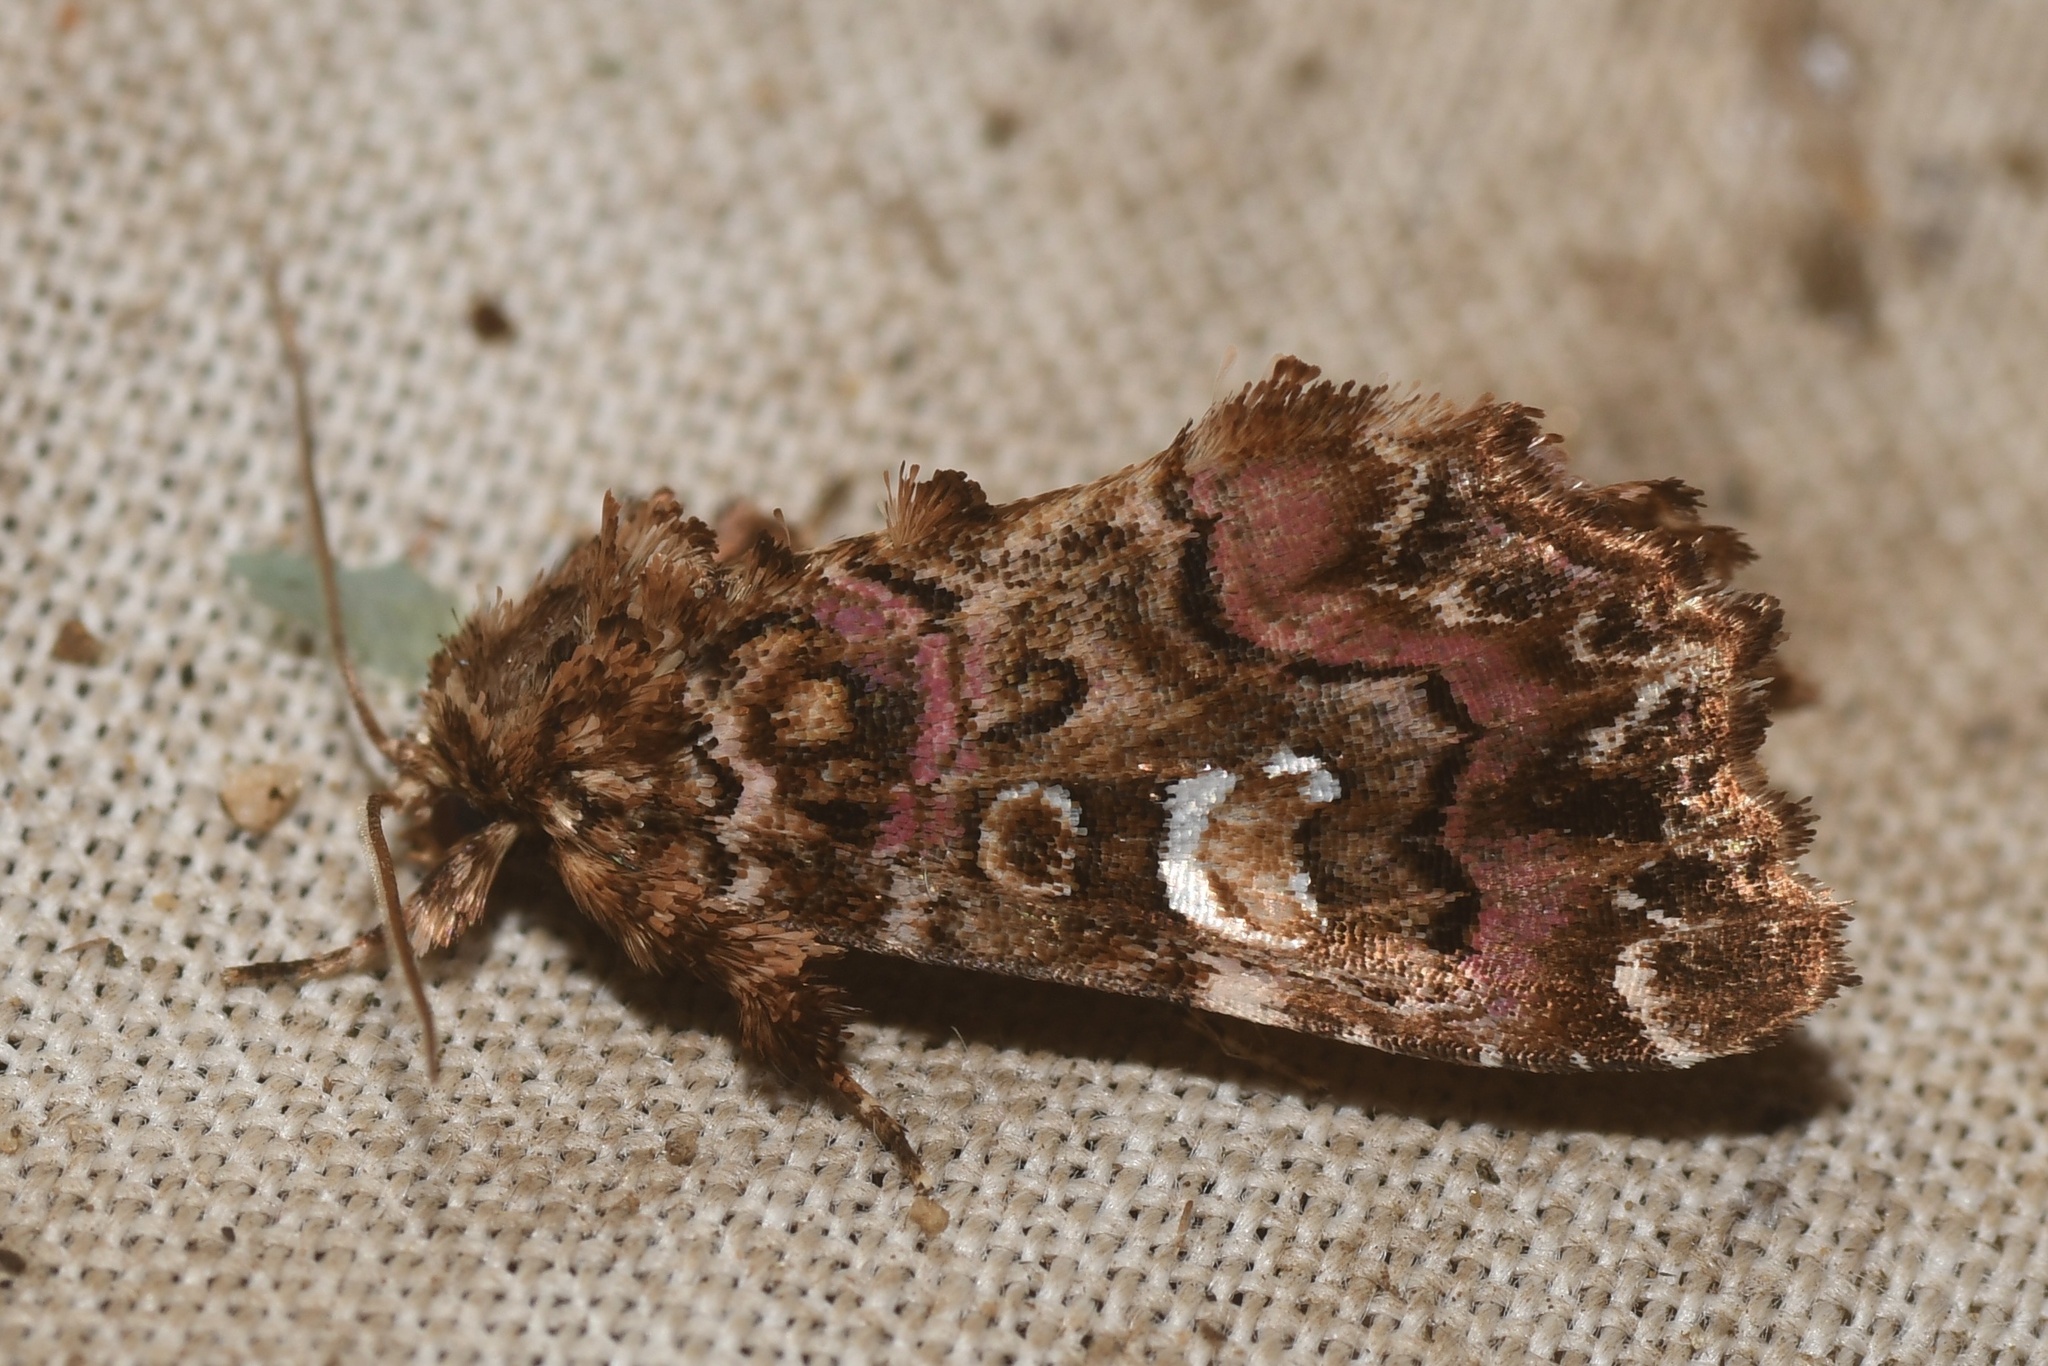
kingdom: Animalia
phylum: Arthropoda
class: Insecta
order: Lepidoptera
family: Noctuidae
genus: Callopistria
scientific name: Callopistria mollissima
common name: Pink-shaded fern moth
